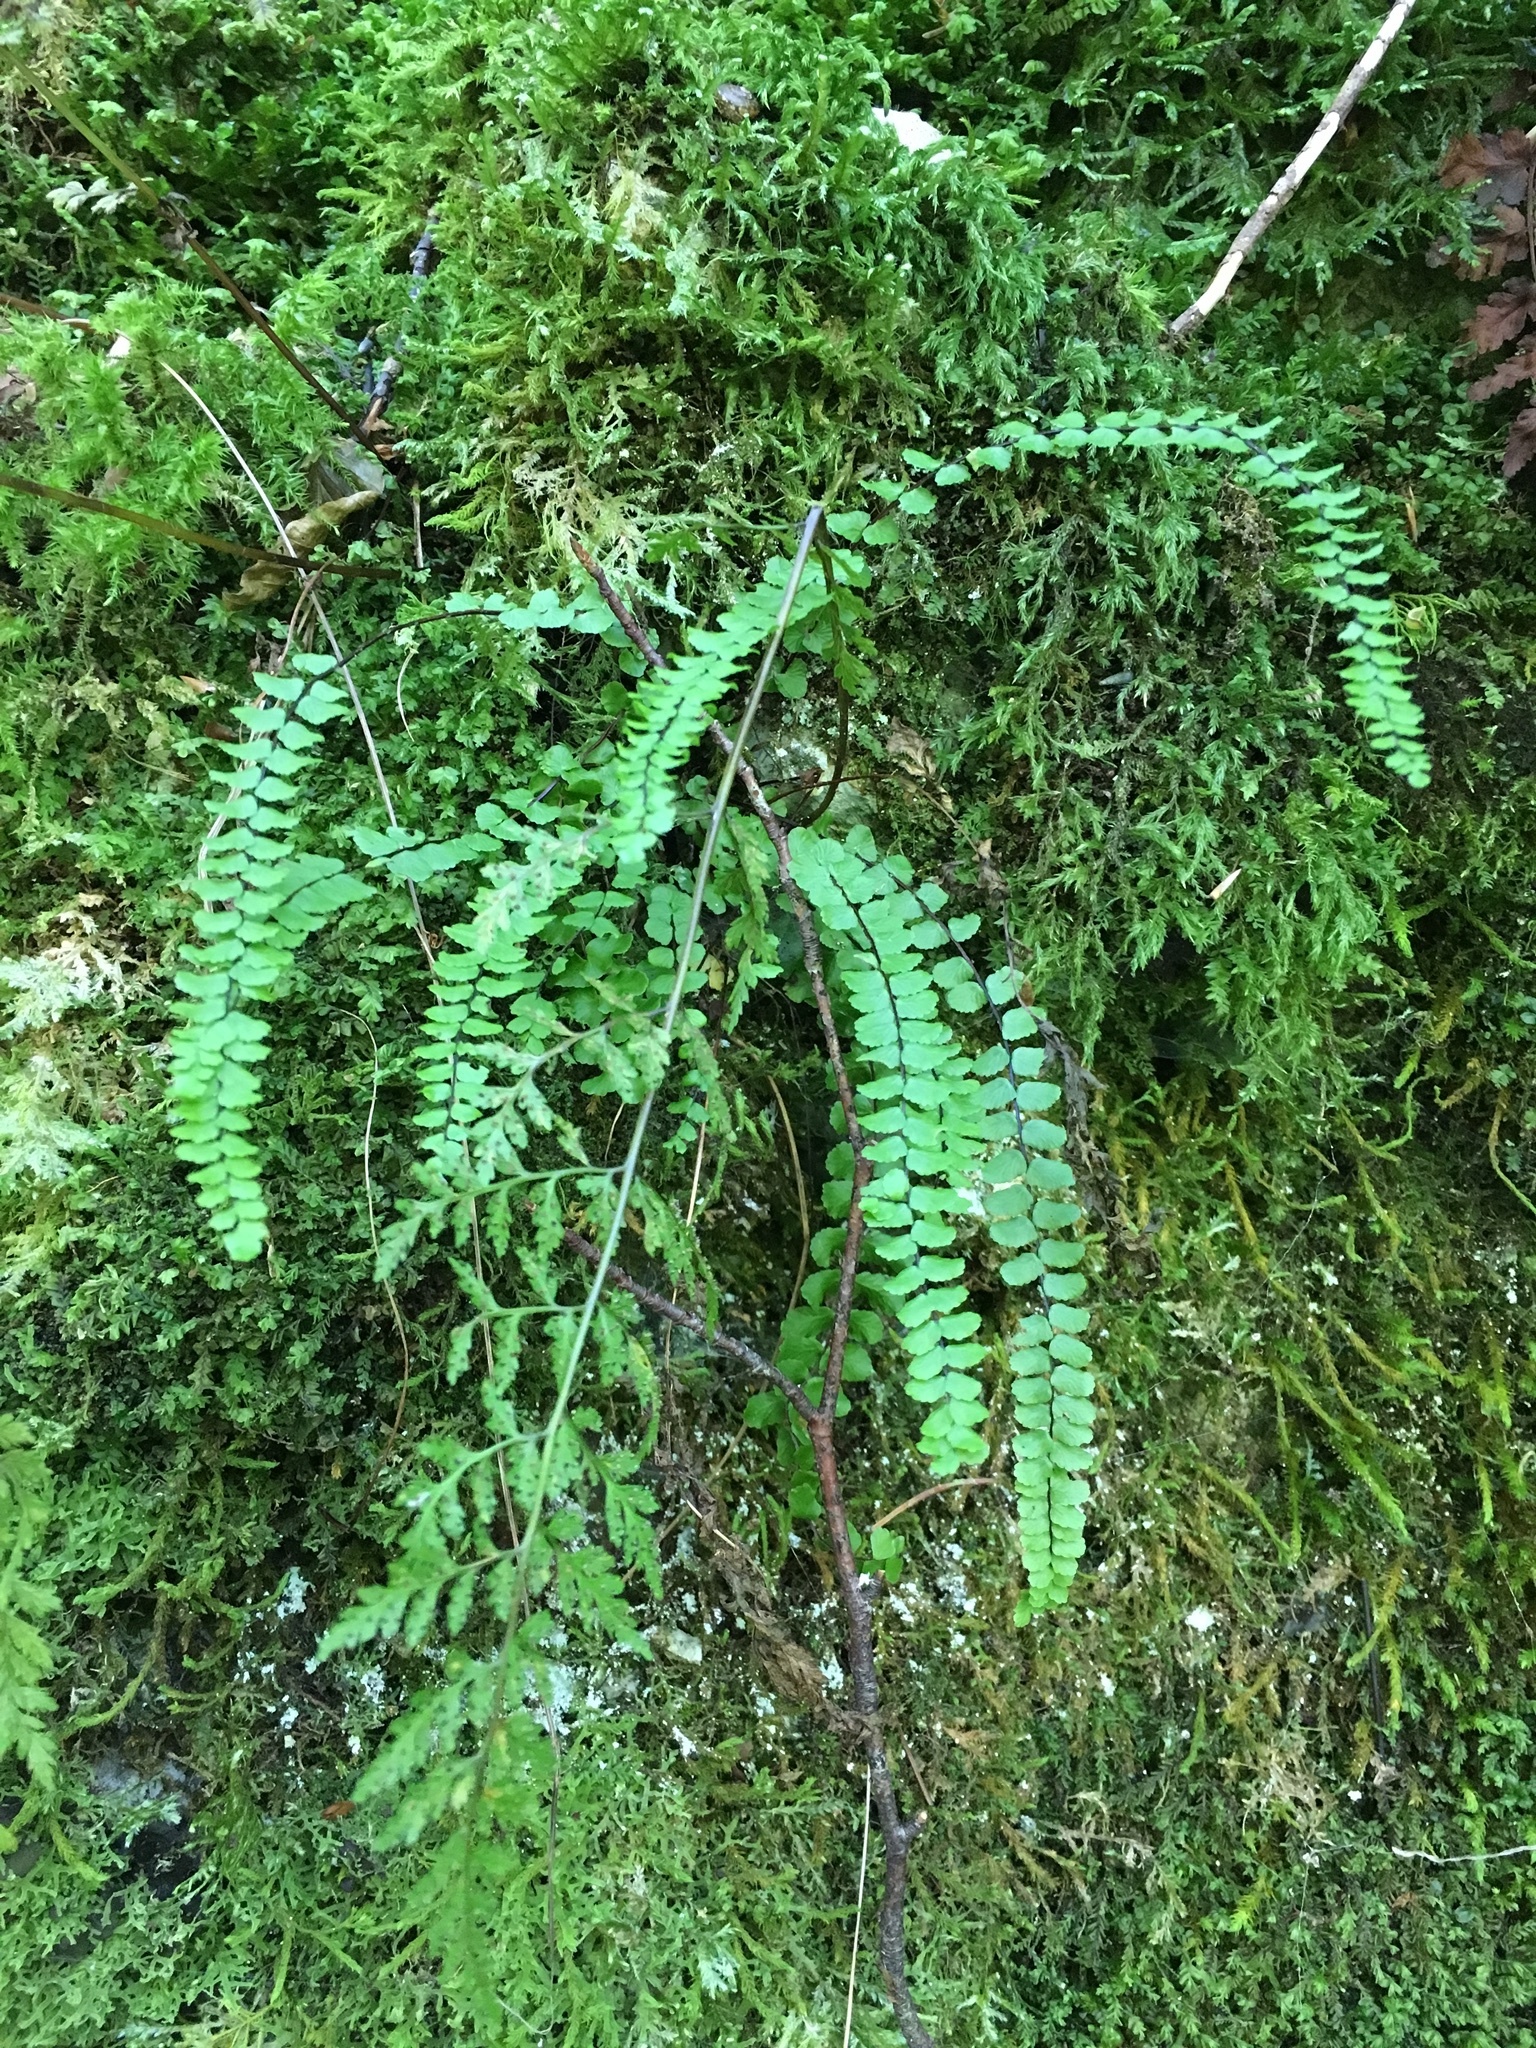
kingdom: Plantae
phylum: Tracheophyta
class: Polypodiopsida
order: Polypodiales
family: Aspleniaceae
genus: Asplenium
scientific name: Asplenium trichomanes
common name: Maidenhair spleenwort
